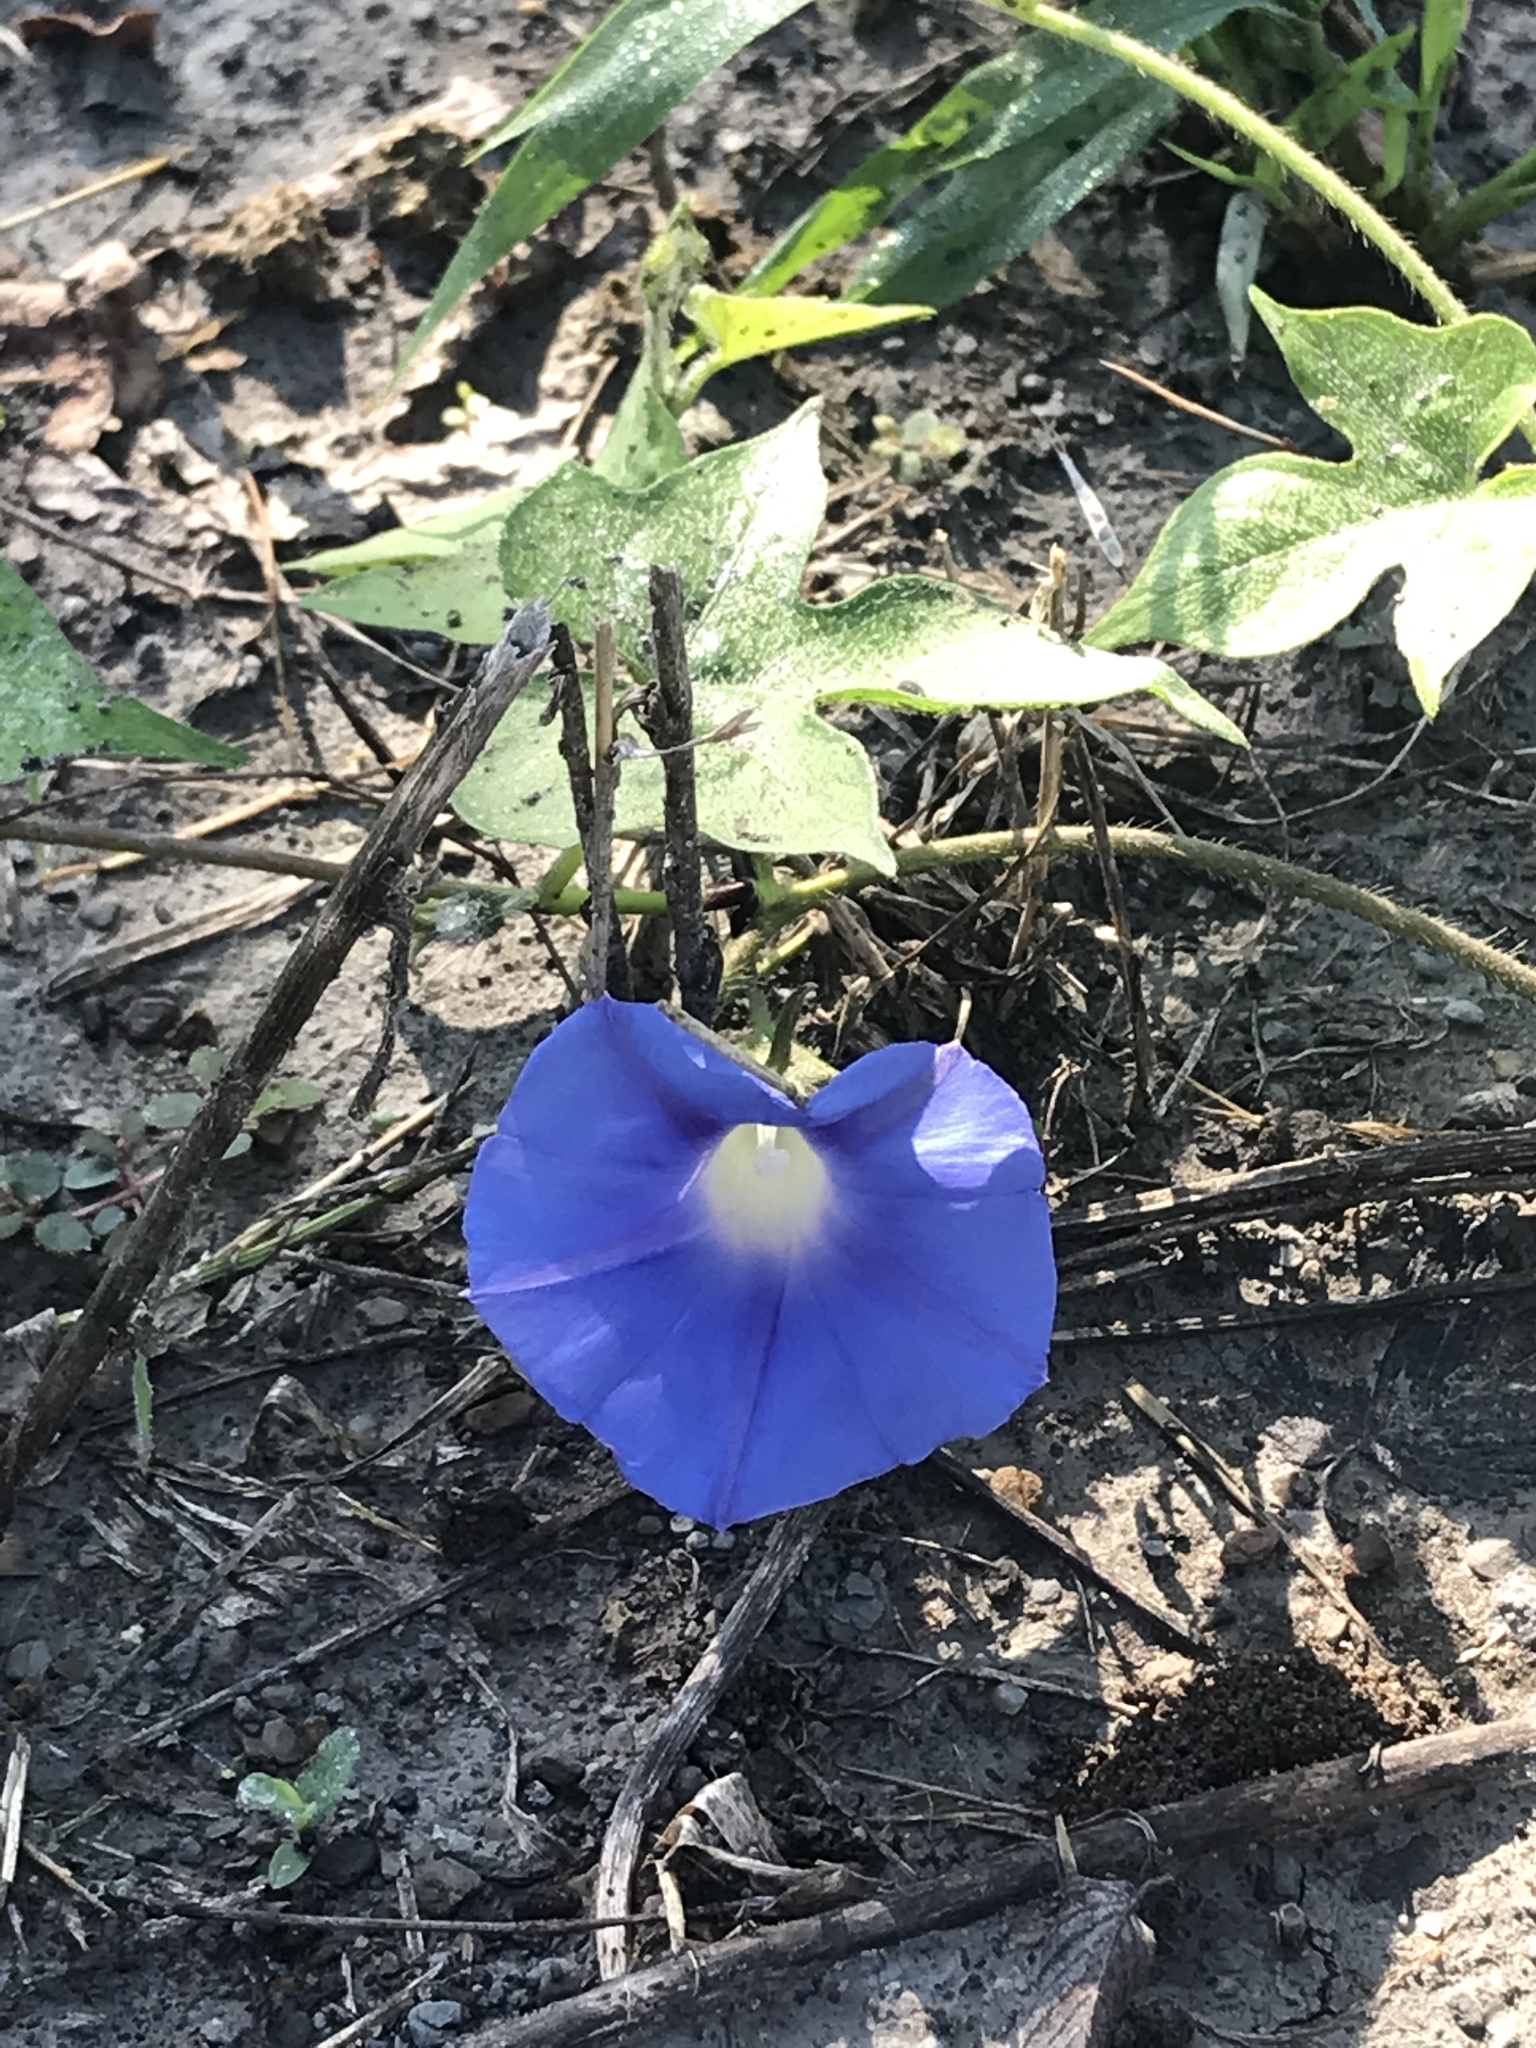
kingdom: Plantae
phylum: Tracheophyta
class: Magnoliopsida
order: Solanales
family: Convolvulaceae
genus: Ipomoea
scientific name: Ipomoea hederacea
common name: Ivy-leaved morning-glory
